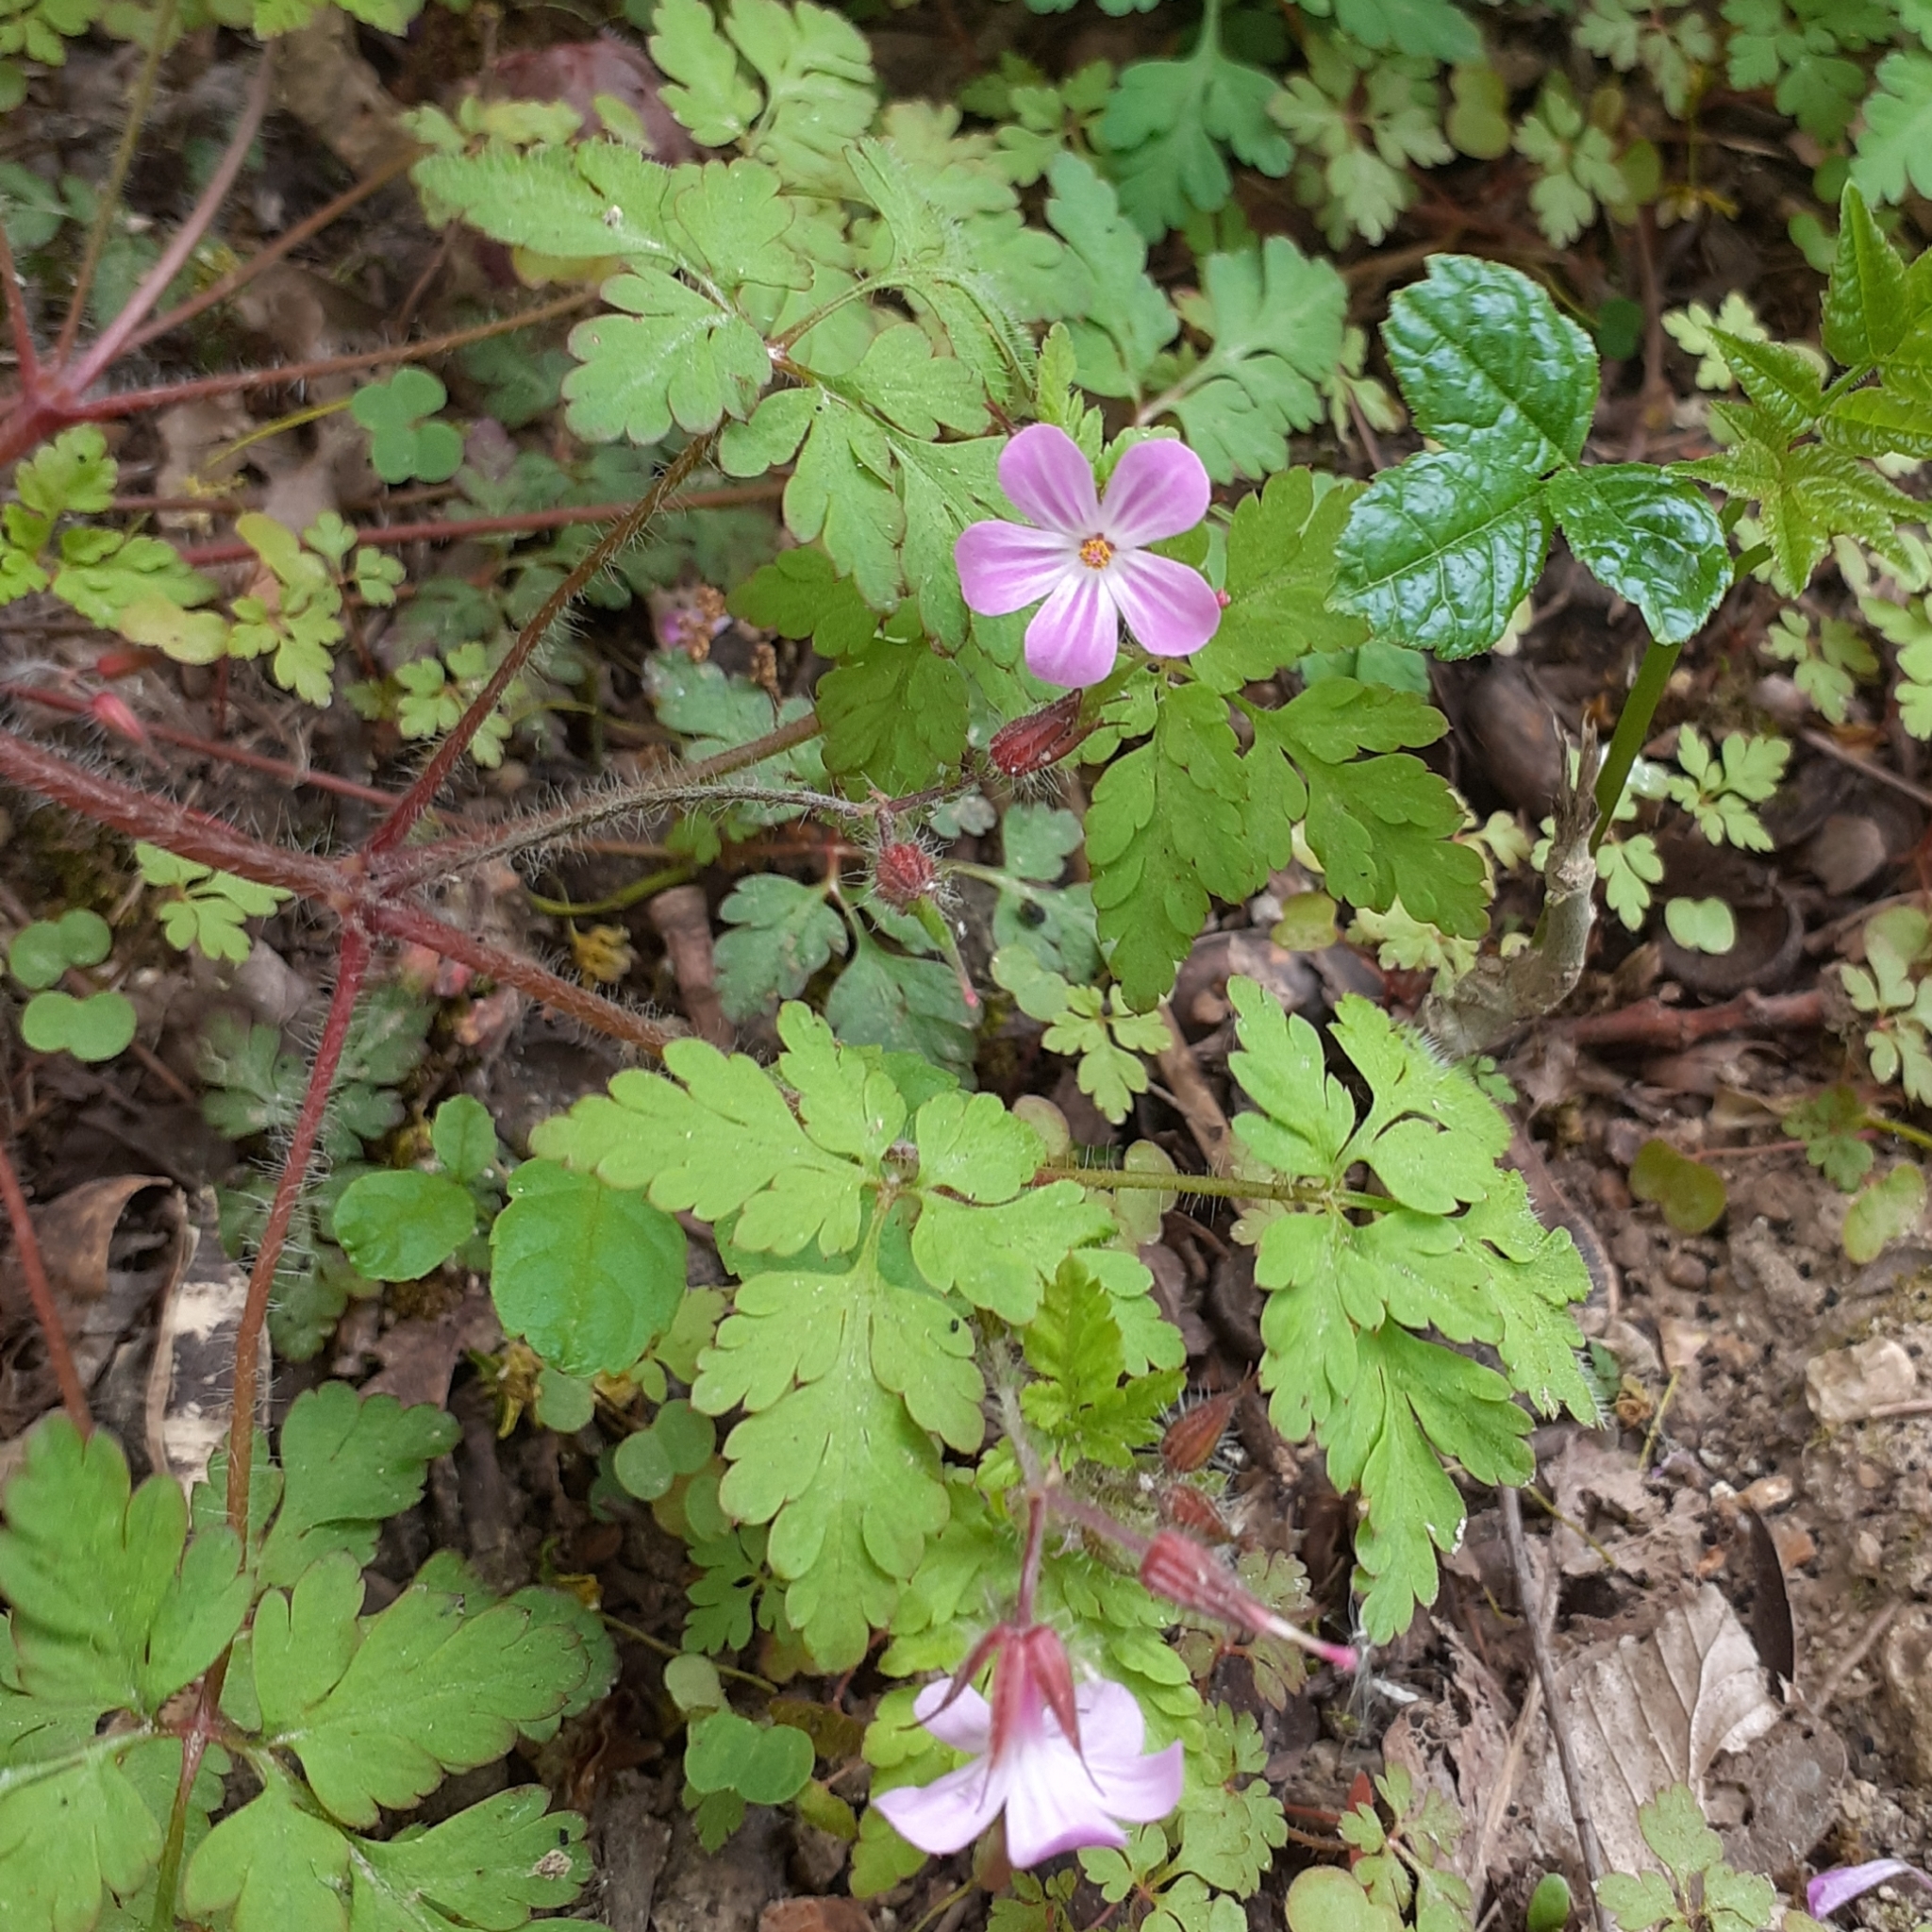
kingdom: Plantae
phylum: Tracheophyta
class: Magnoliopsida
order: Geraniales
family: Geraniaceae
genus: Geranium
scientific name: Geranium robertianum
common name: Herb-robert
